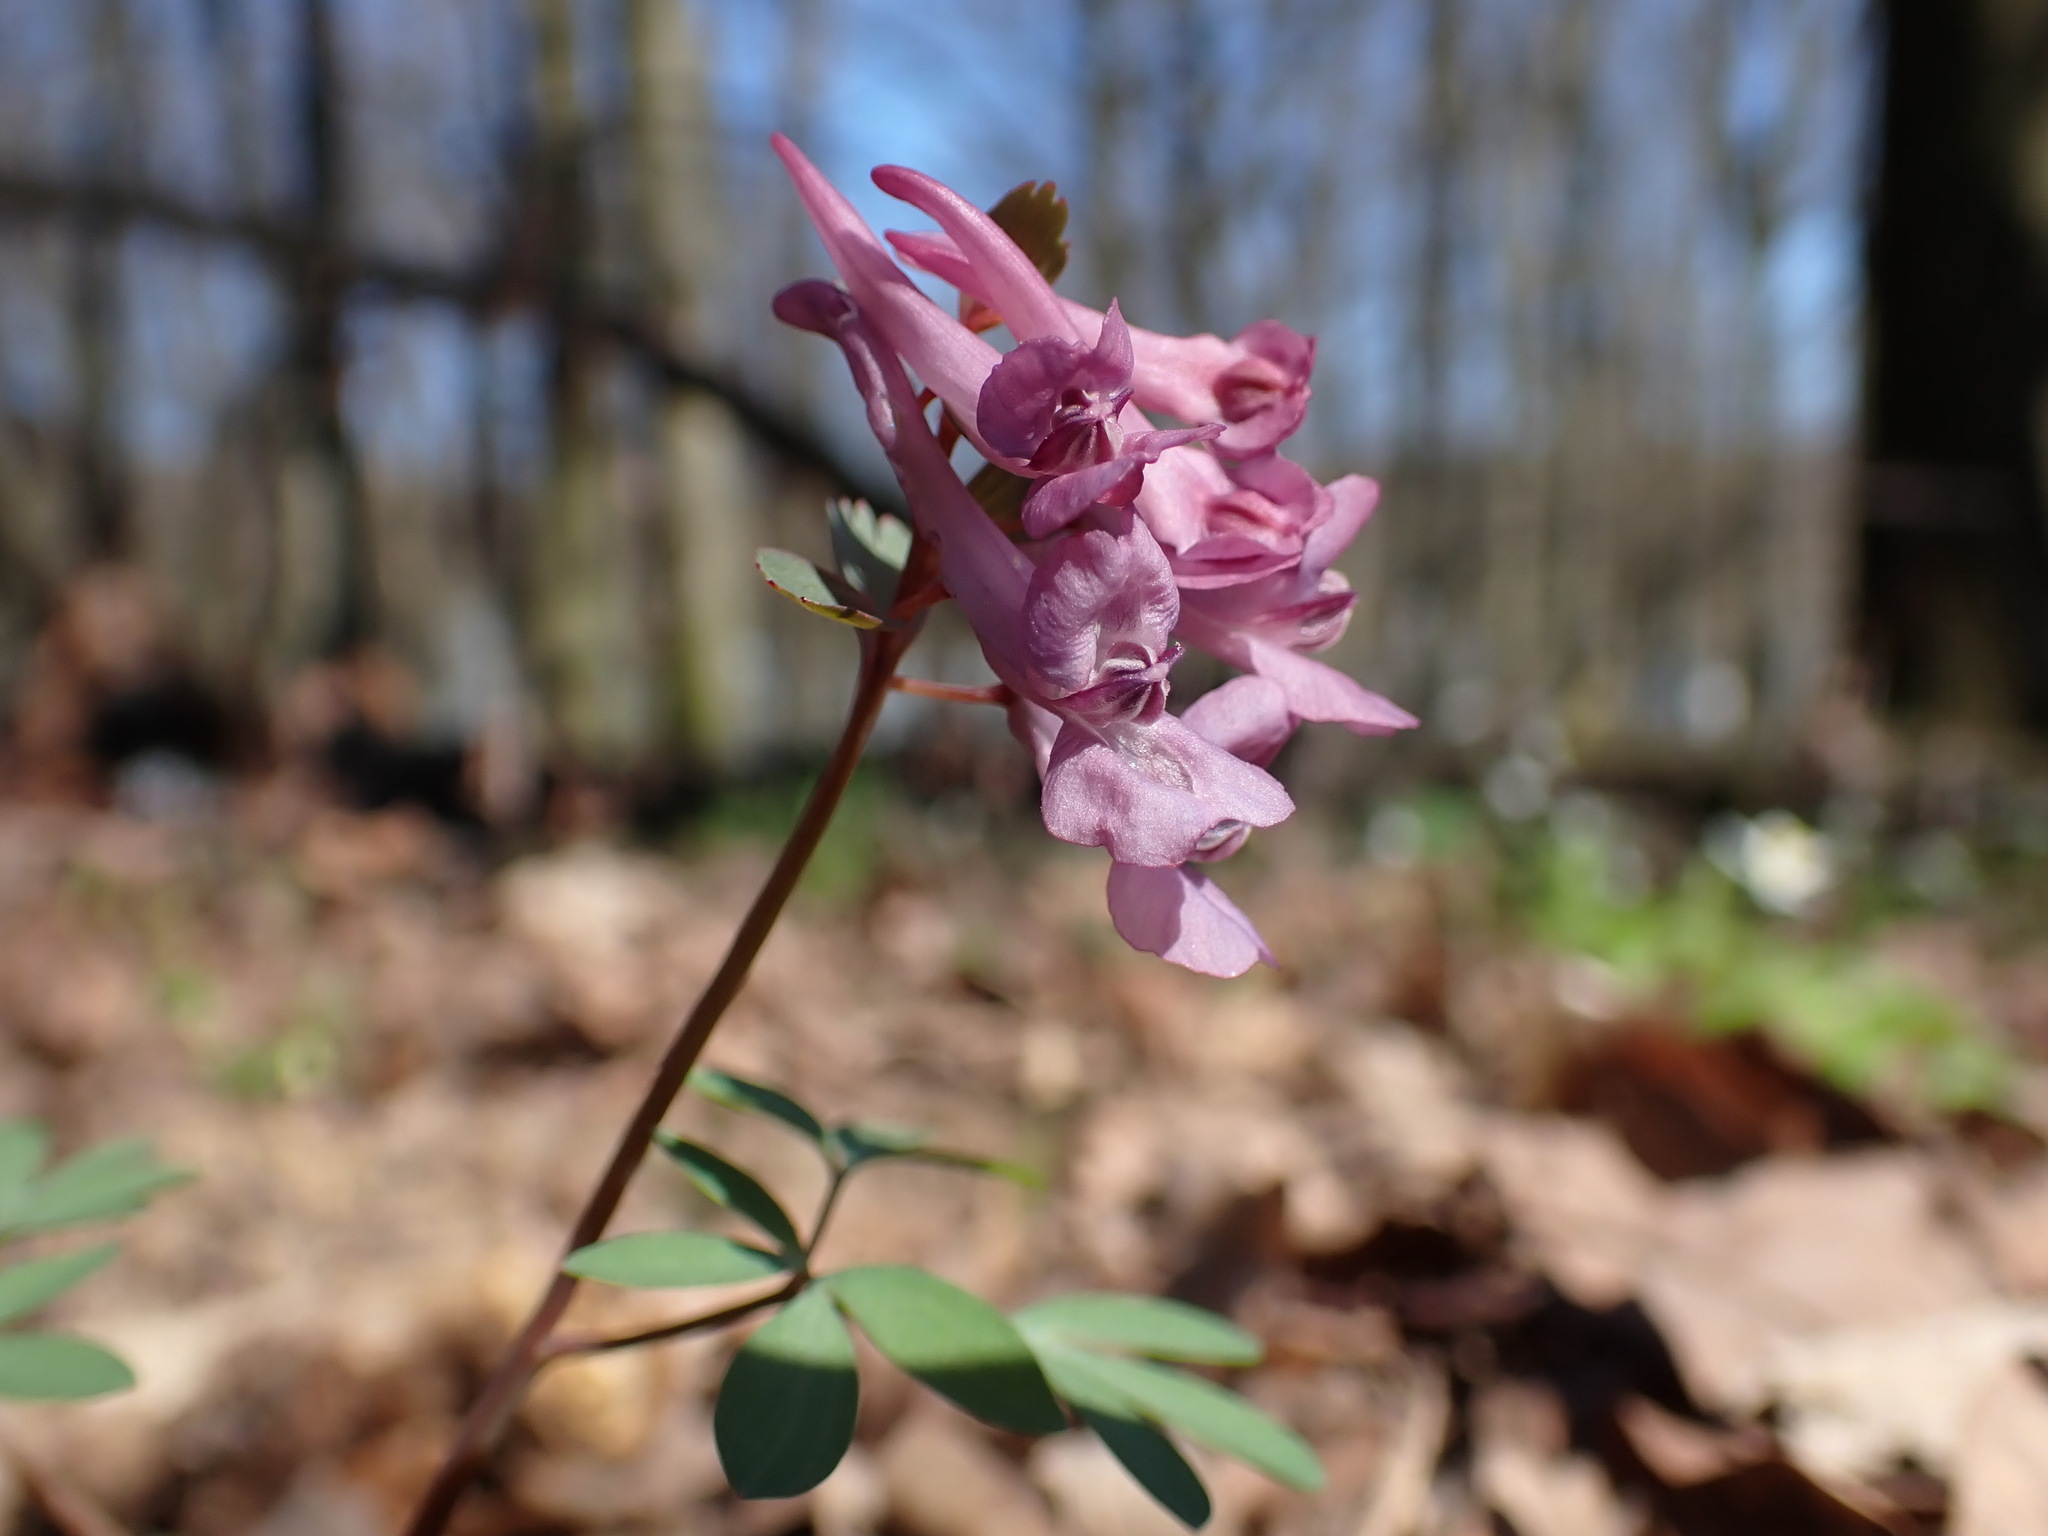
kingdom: Plantae
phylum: Tracheophyta
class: Magnoliopsida
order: Ranunculales
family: Papaveraceae
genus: Corydalis
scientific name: Corydalis solida
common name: Bird-in-a-bush
